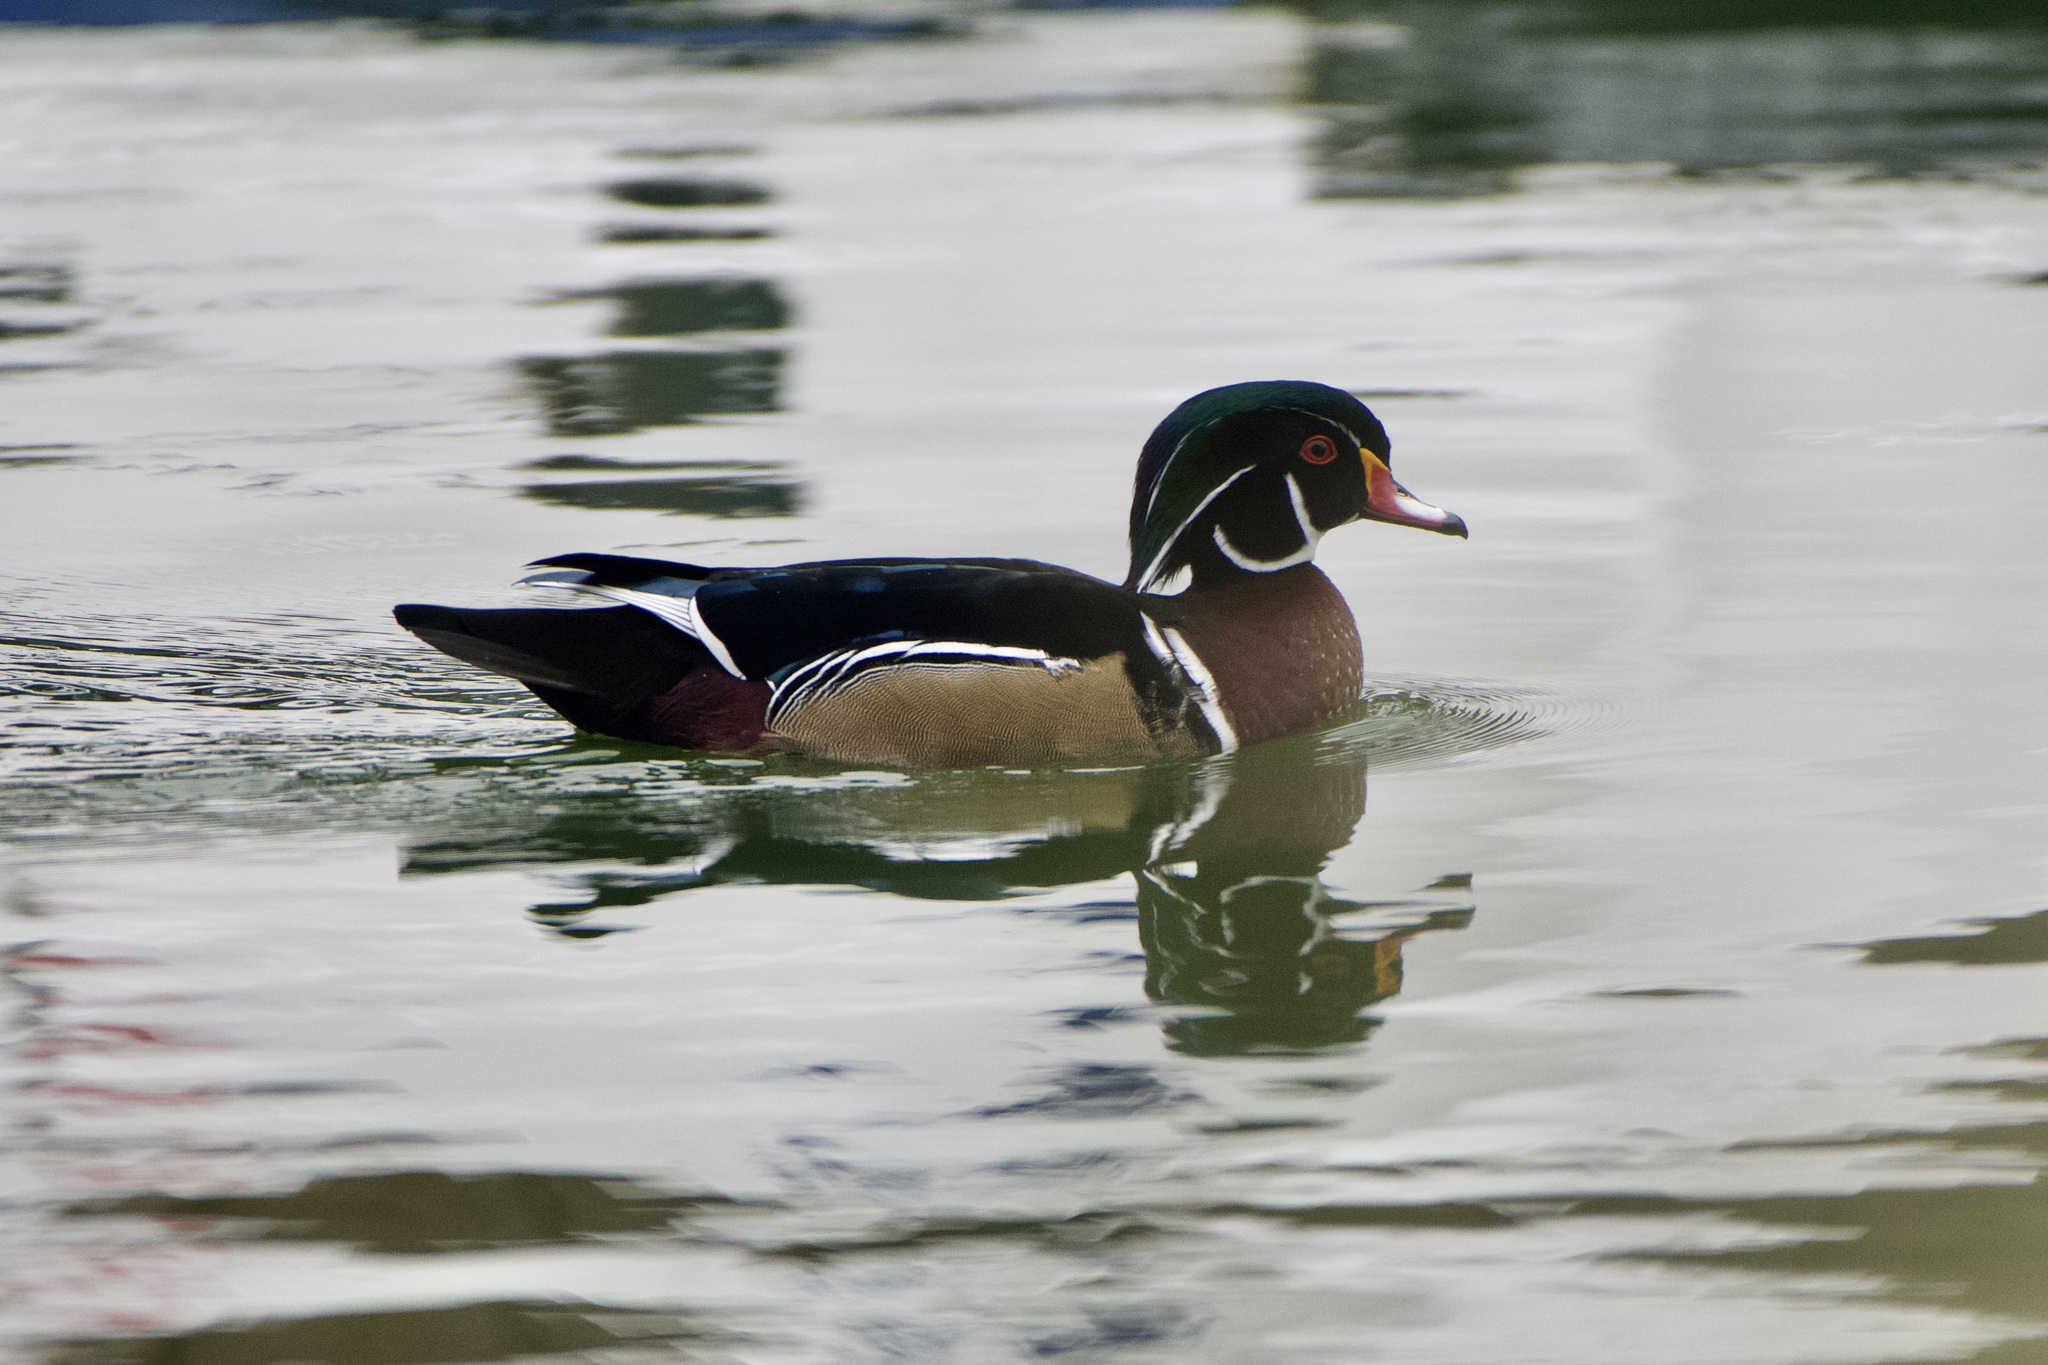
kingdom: Animalia
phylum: Chordata
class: Aves
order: Anseriformes
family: Anatidae
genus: Aix
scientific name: Aix sponsa
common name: Wood duck
